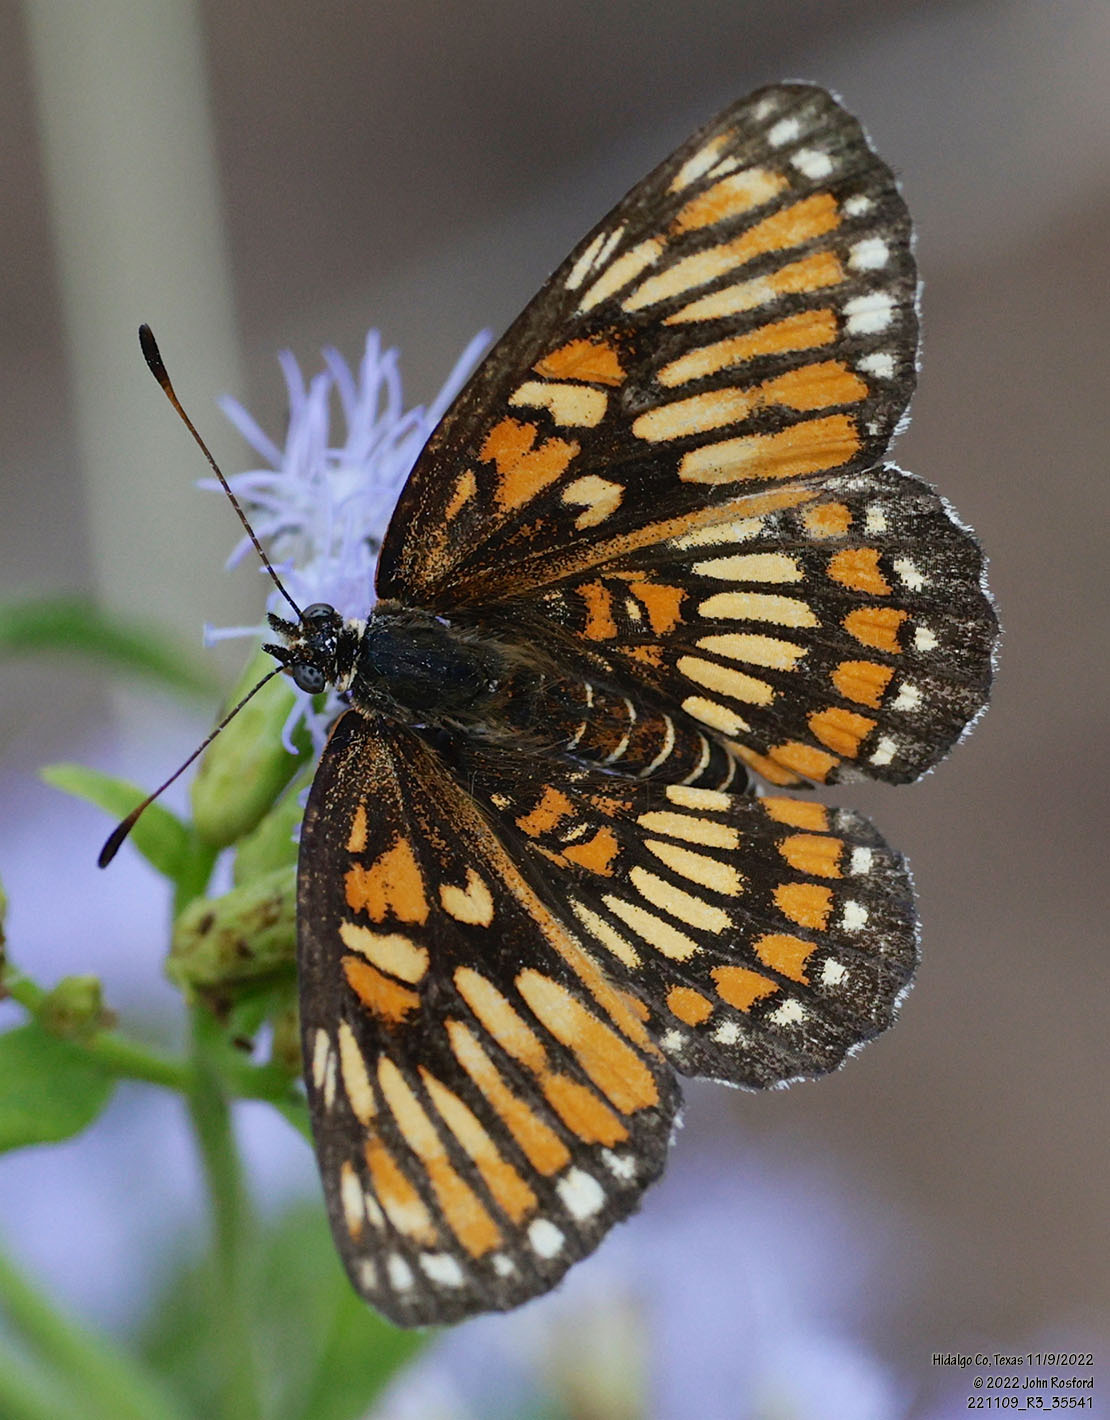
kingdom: Animalia
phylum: Arthropoda
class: Insecta
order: Lepidoptera
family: Nymphalidae
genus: Thessalia
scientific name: Thessalia theona
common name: Nymphalid moth
